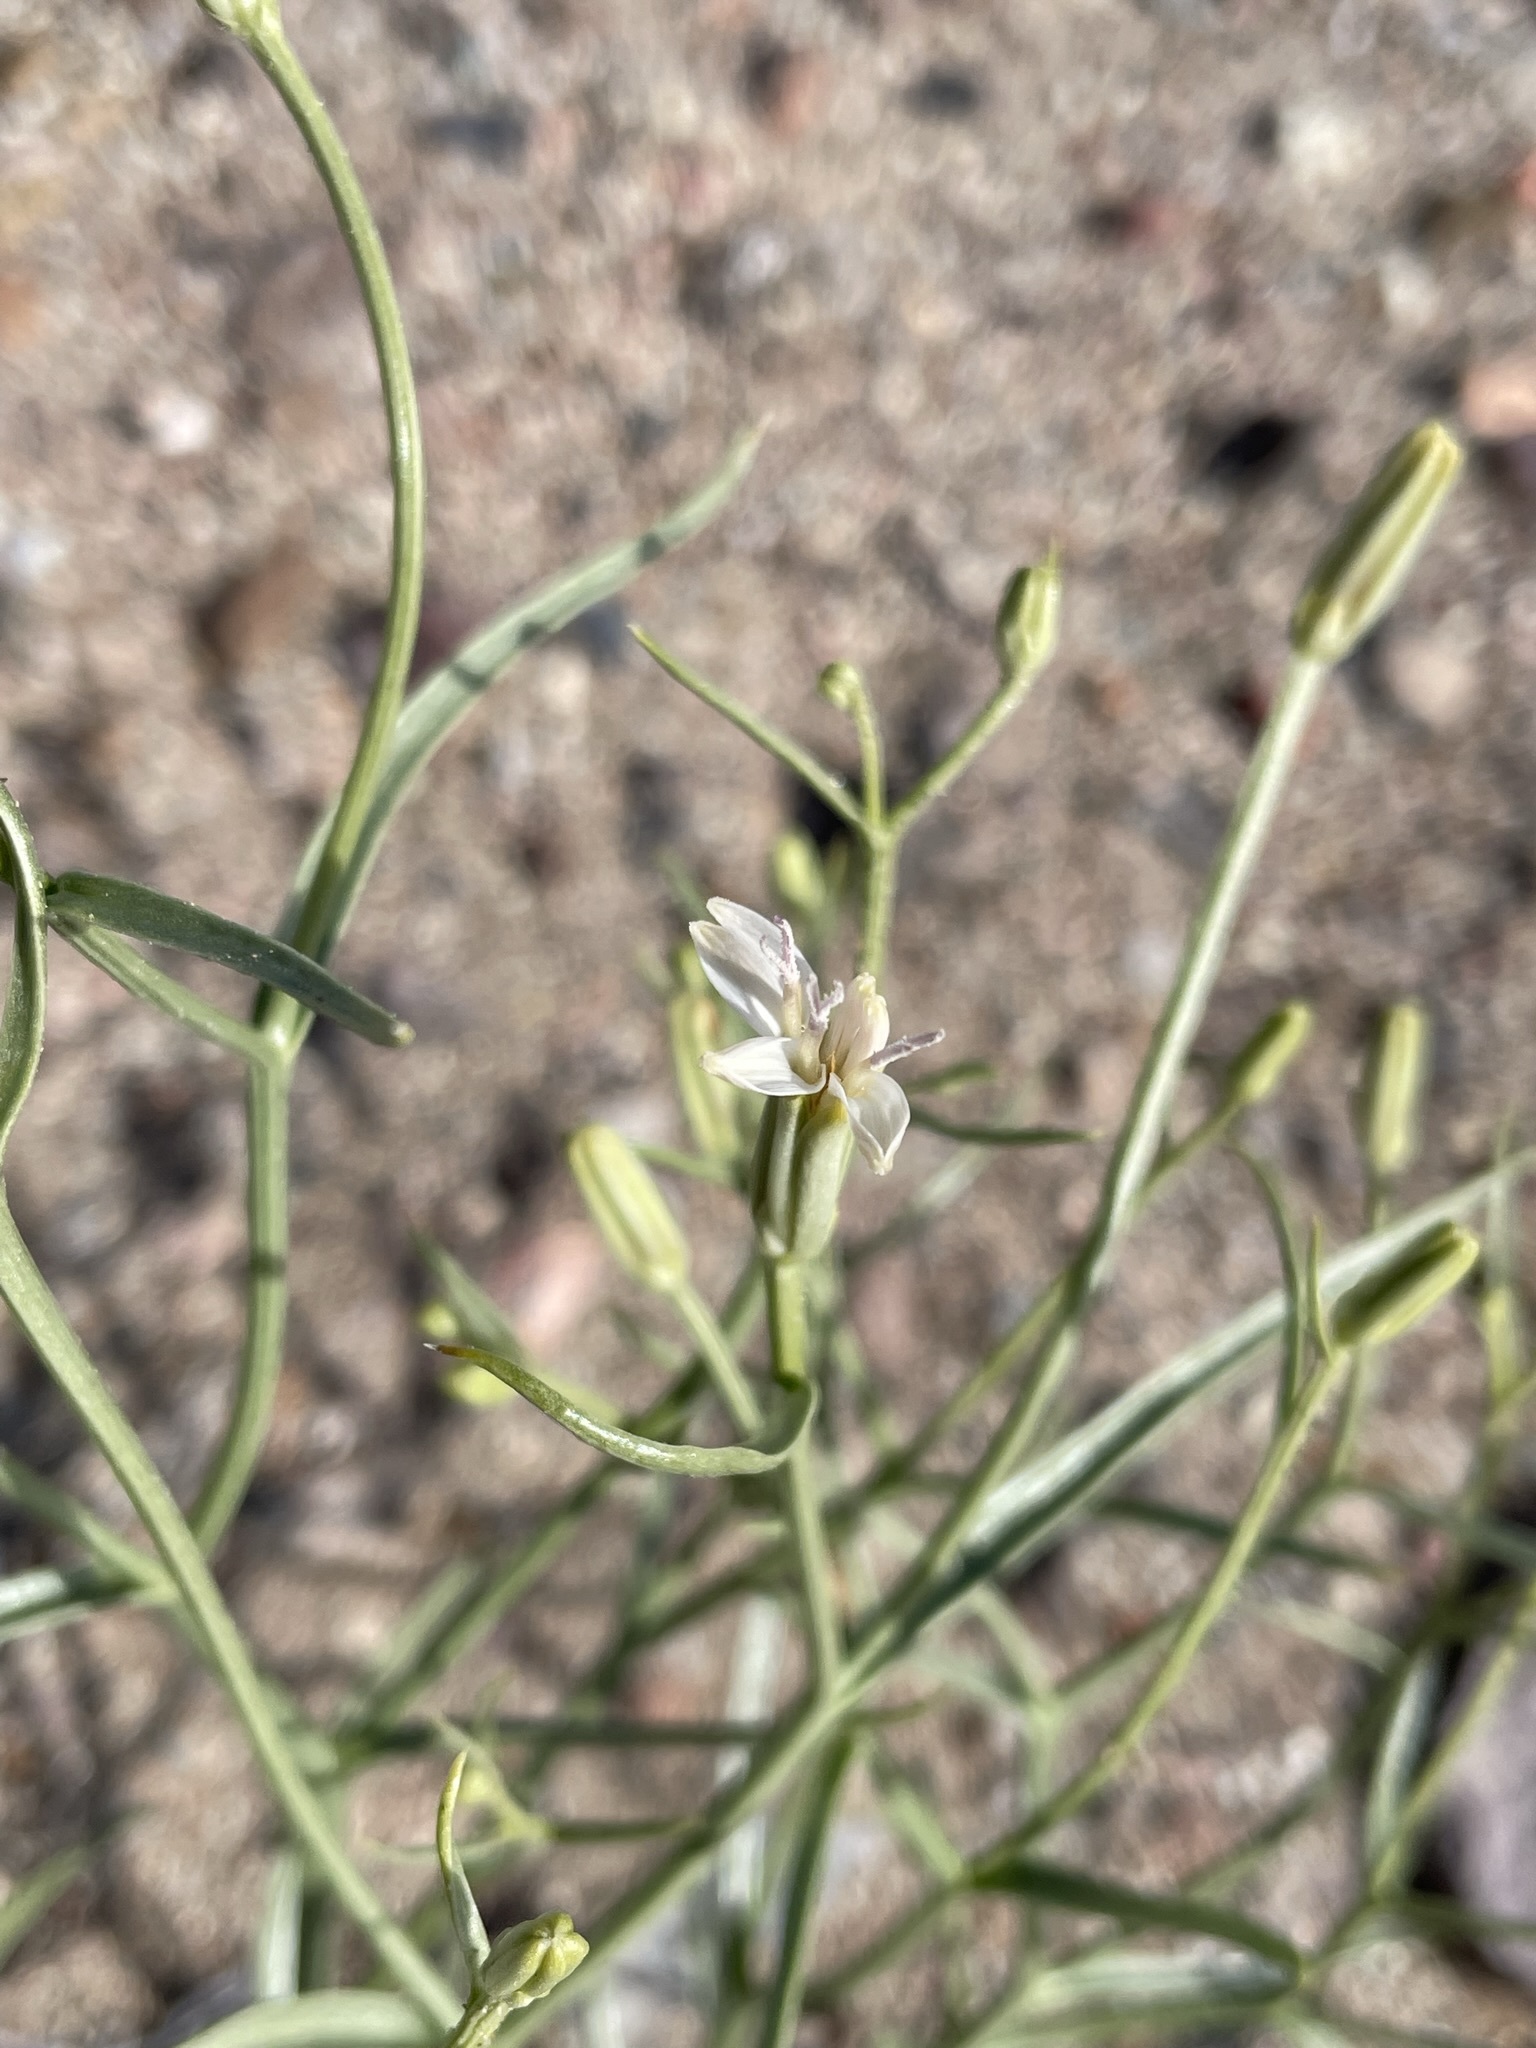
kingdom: Plantae
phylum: Tracheophyta
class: Magnoliopsida
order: Asterales
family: Asteraceae
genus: Chaetadelpha
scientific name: Chaetadelpha wheeleri
